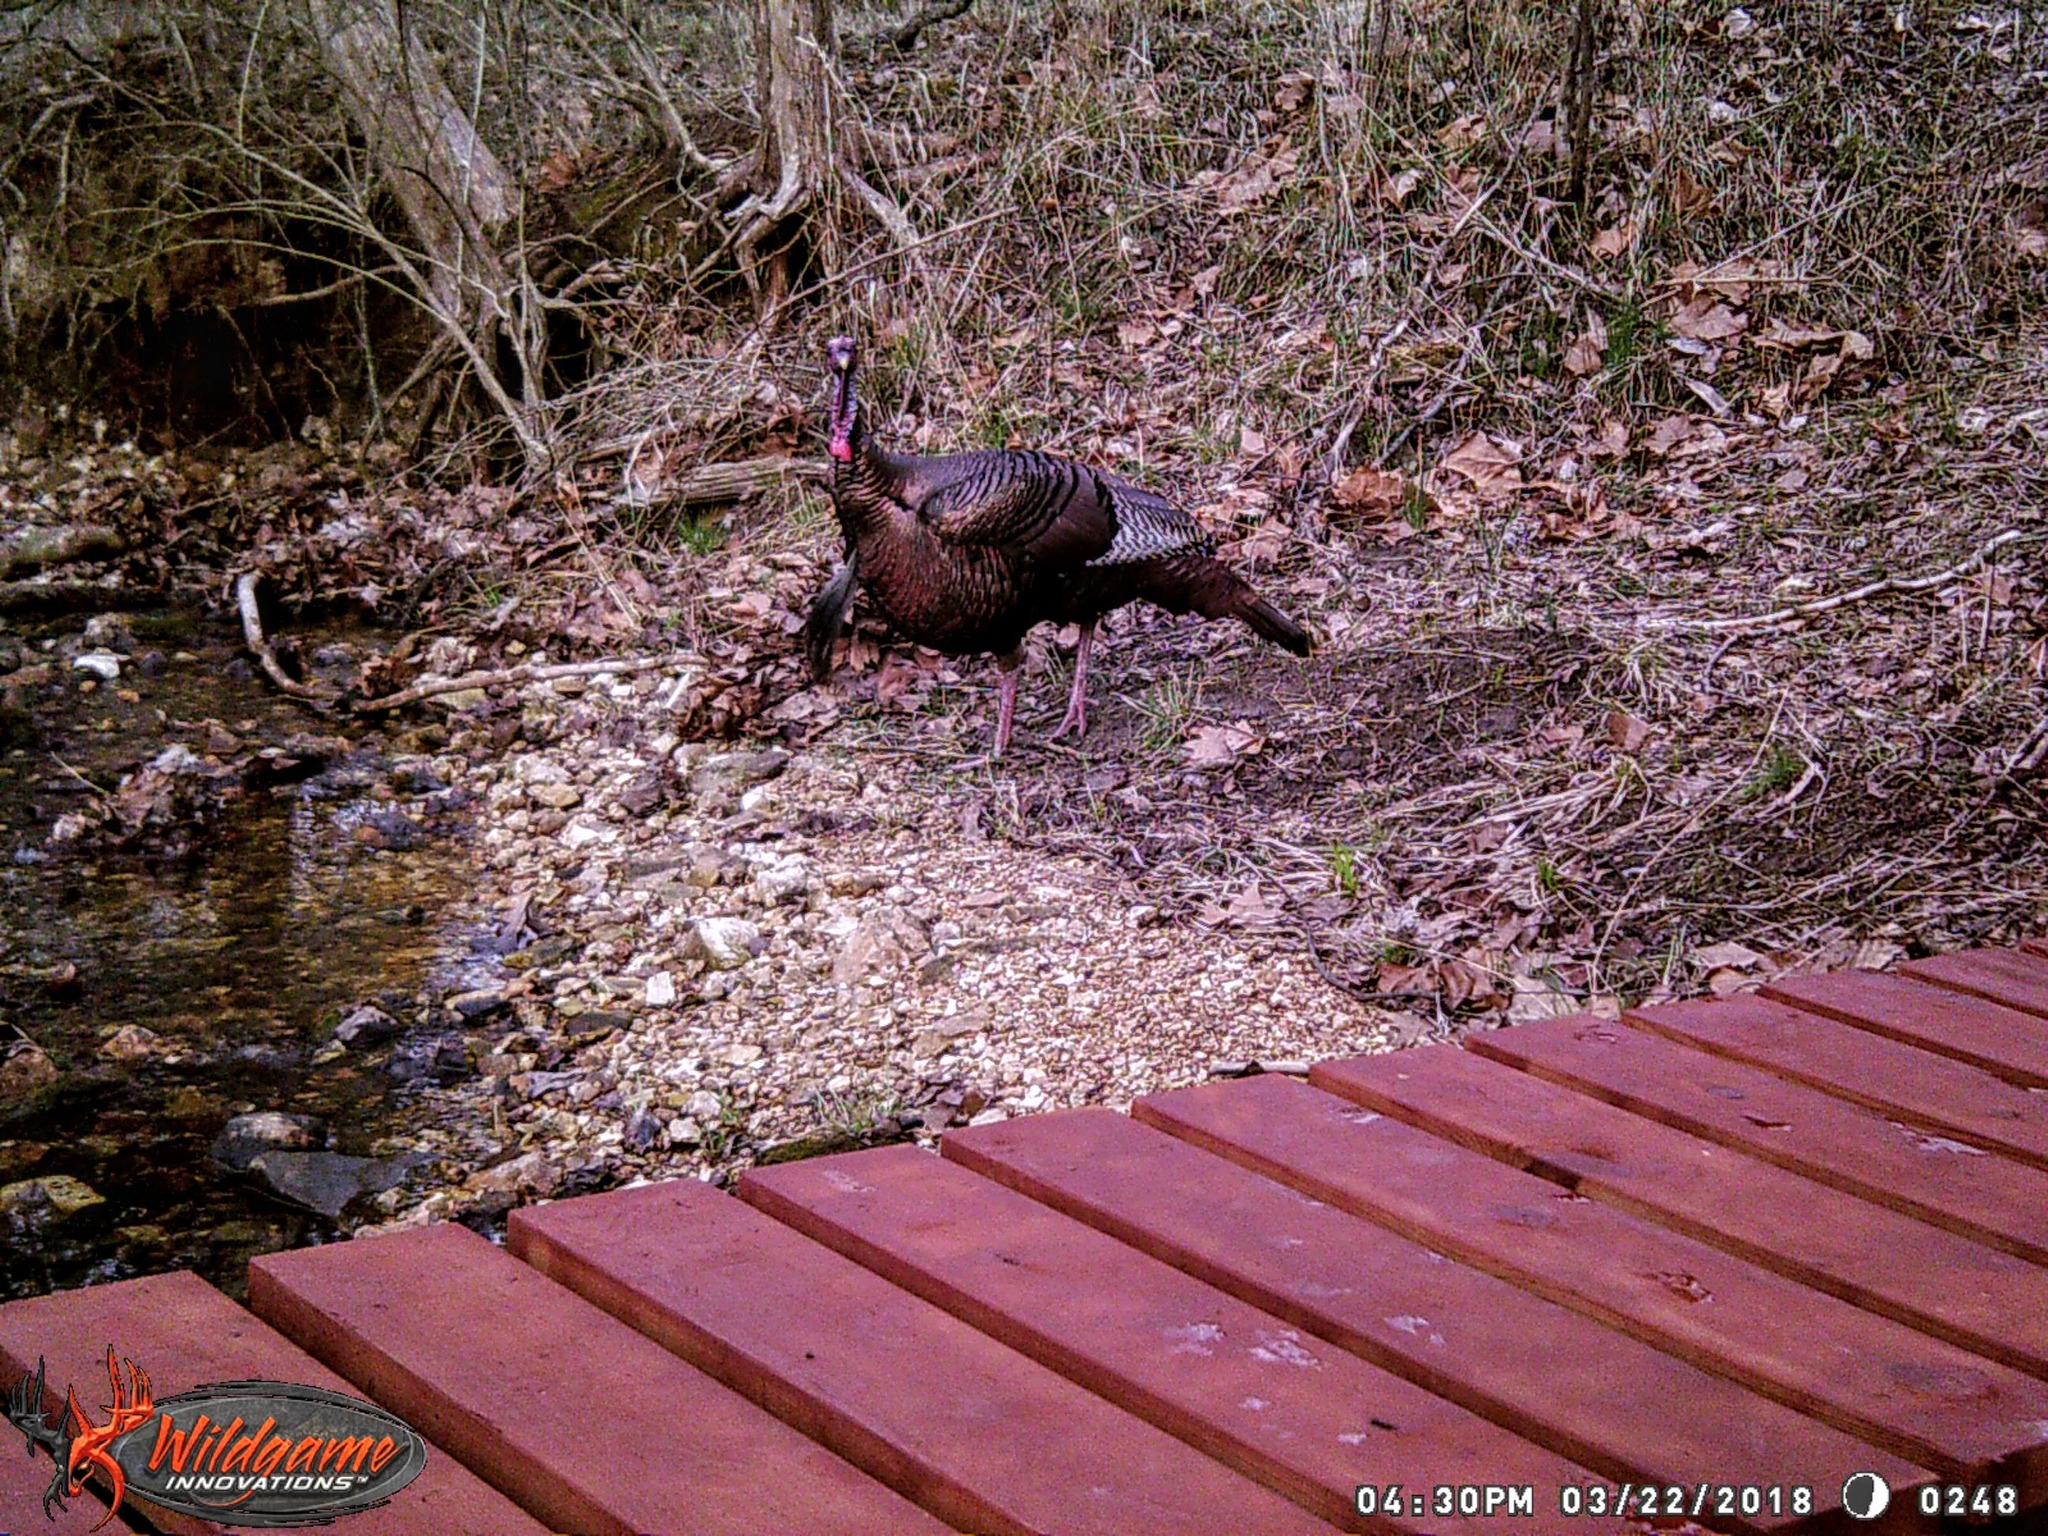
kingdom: Animalia
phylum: Chordata
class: Aves
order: Galliformes
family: Phasianidae
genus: Meleagris
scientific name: Meleagris gallopavo
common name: Wild turkey
